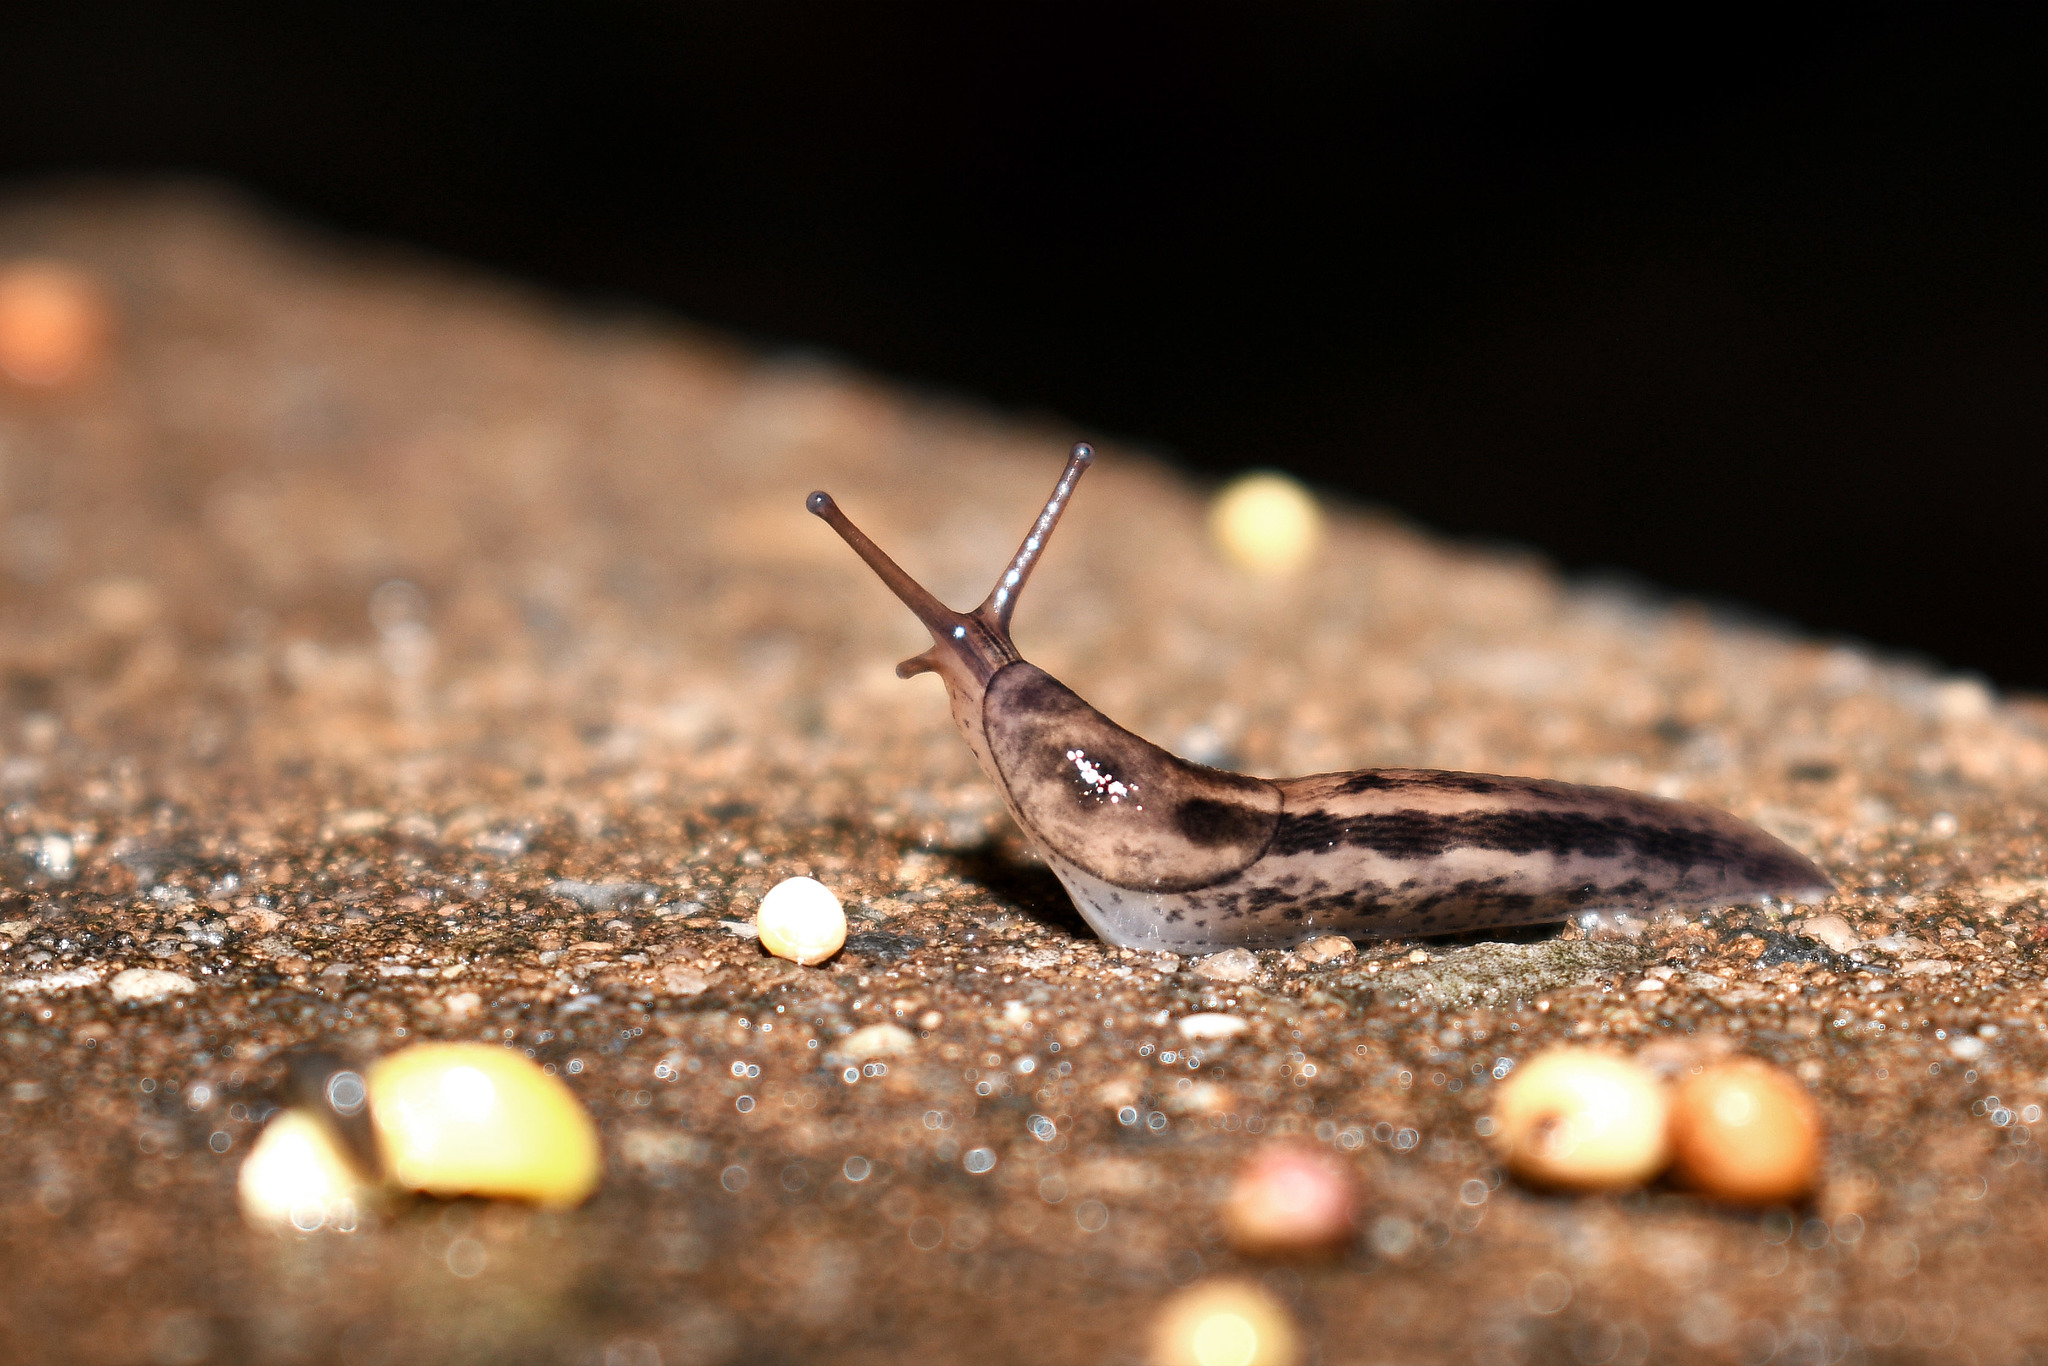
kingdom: Animalia
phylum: Mollusca
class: Gastropoda
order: Stylommatophora
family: Limacidae
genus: Limax
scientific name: Limax maximus
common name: Great grey slug
